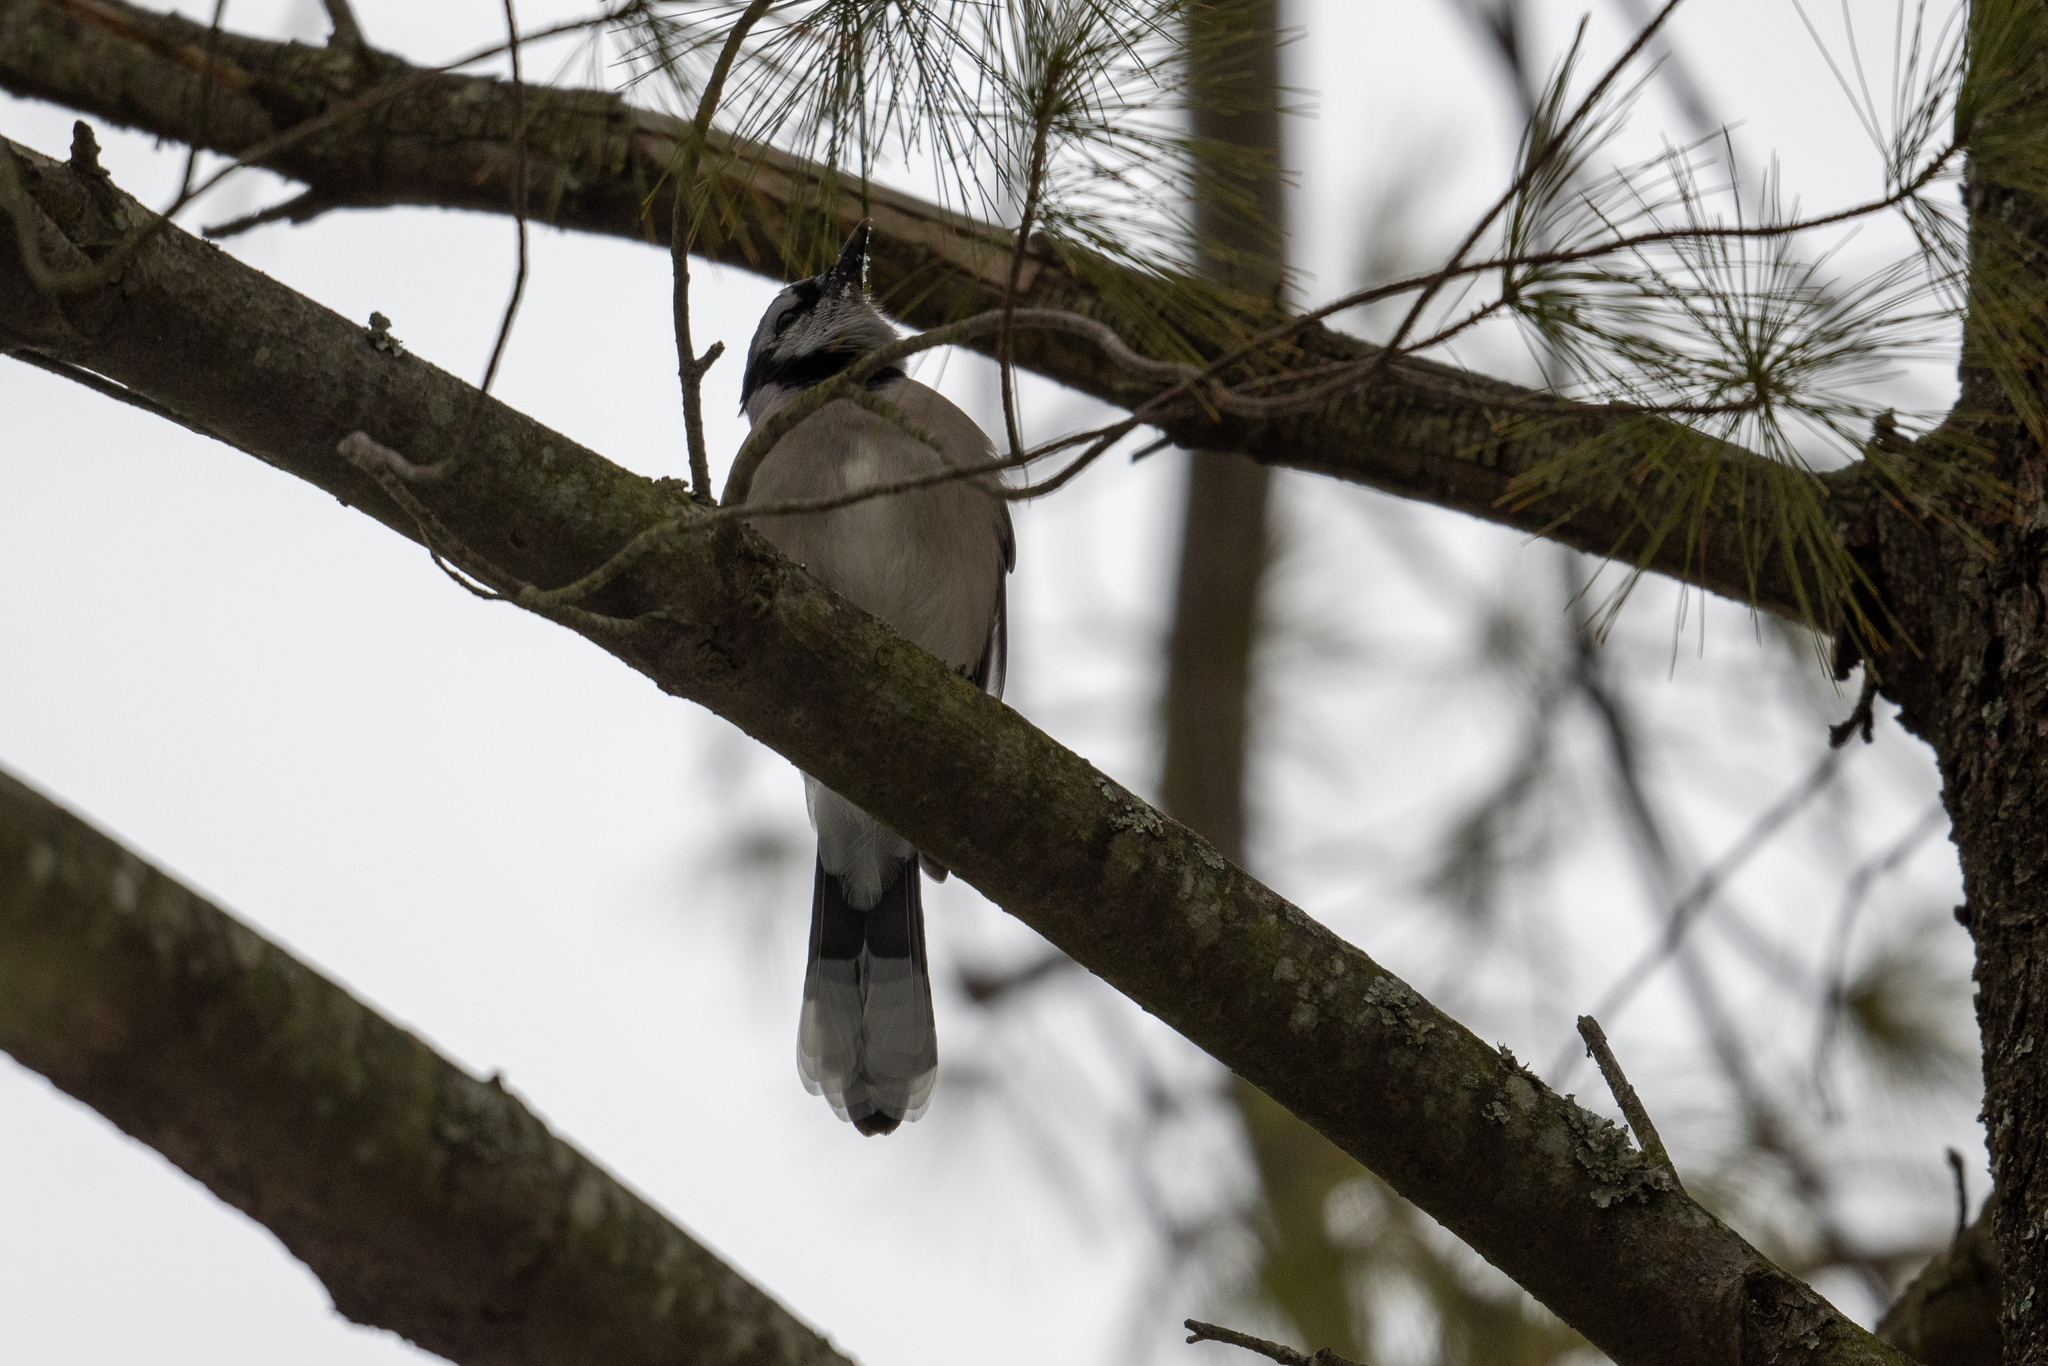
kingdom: Animalia
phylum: Chordata
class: Aves
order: Passeriformes
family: Corvidae
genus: Cyanocitta
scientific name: Cyanocitta cristata
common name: Blue jay
